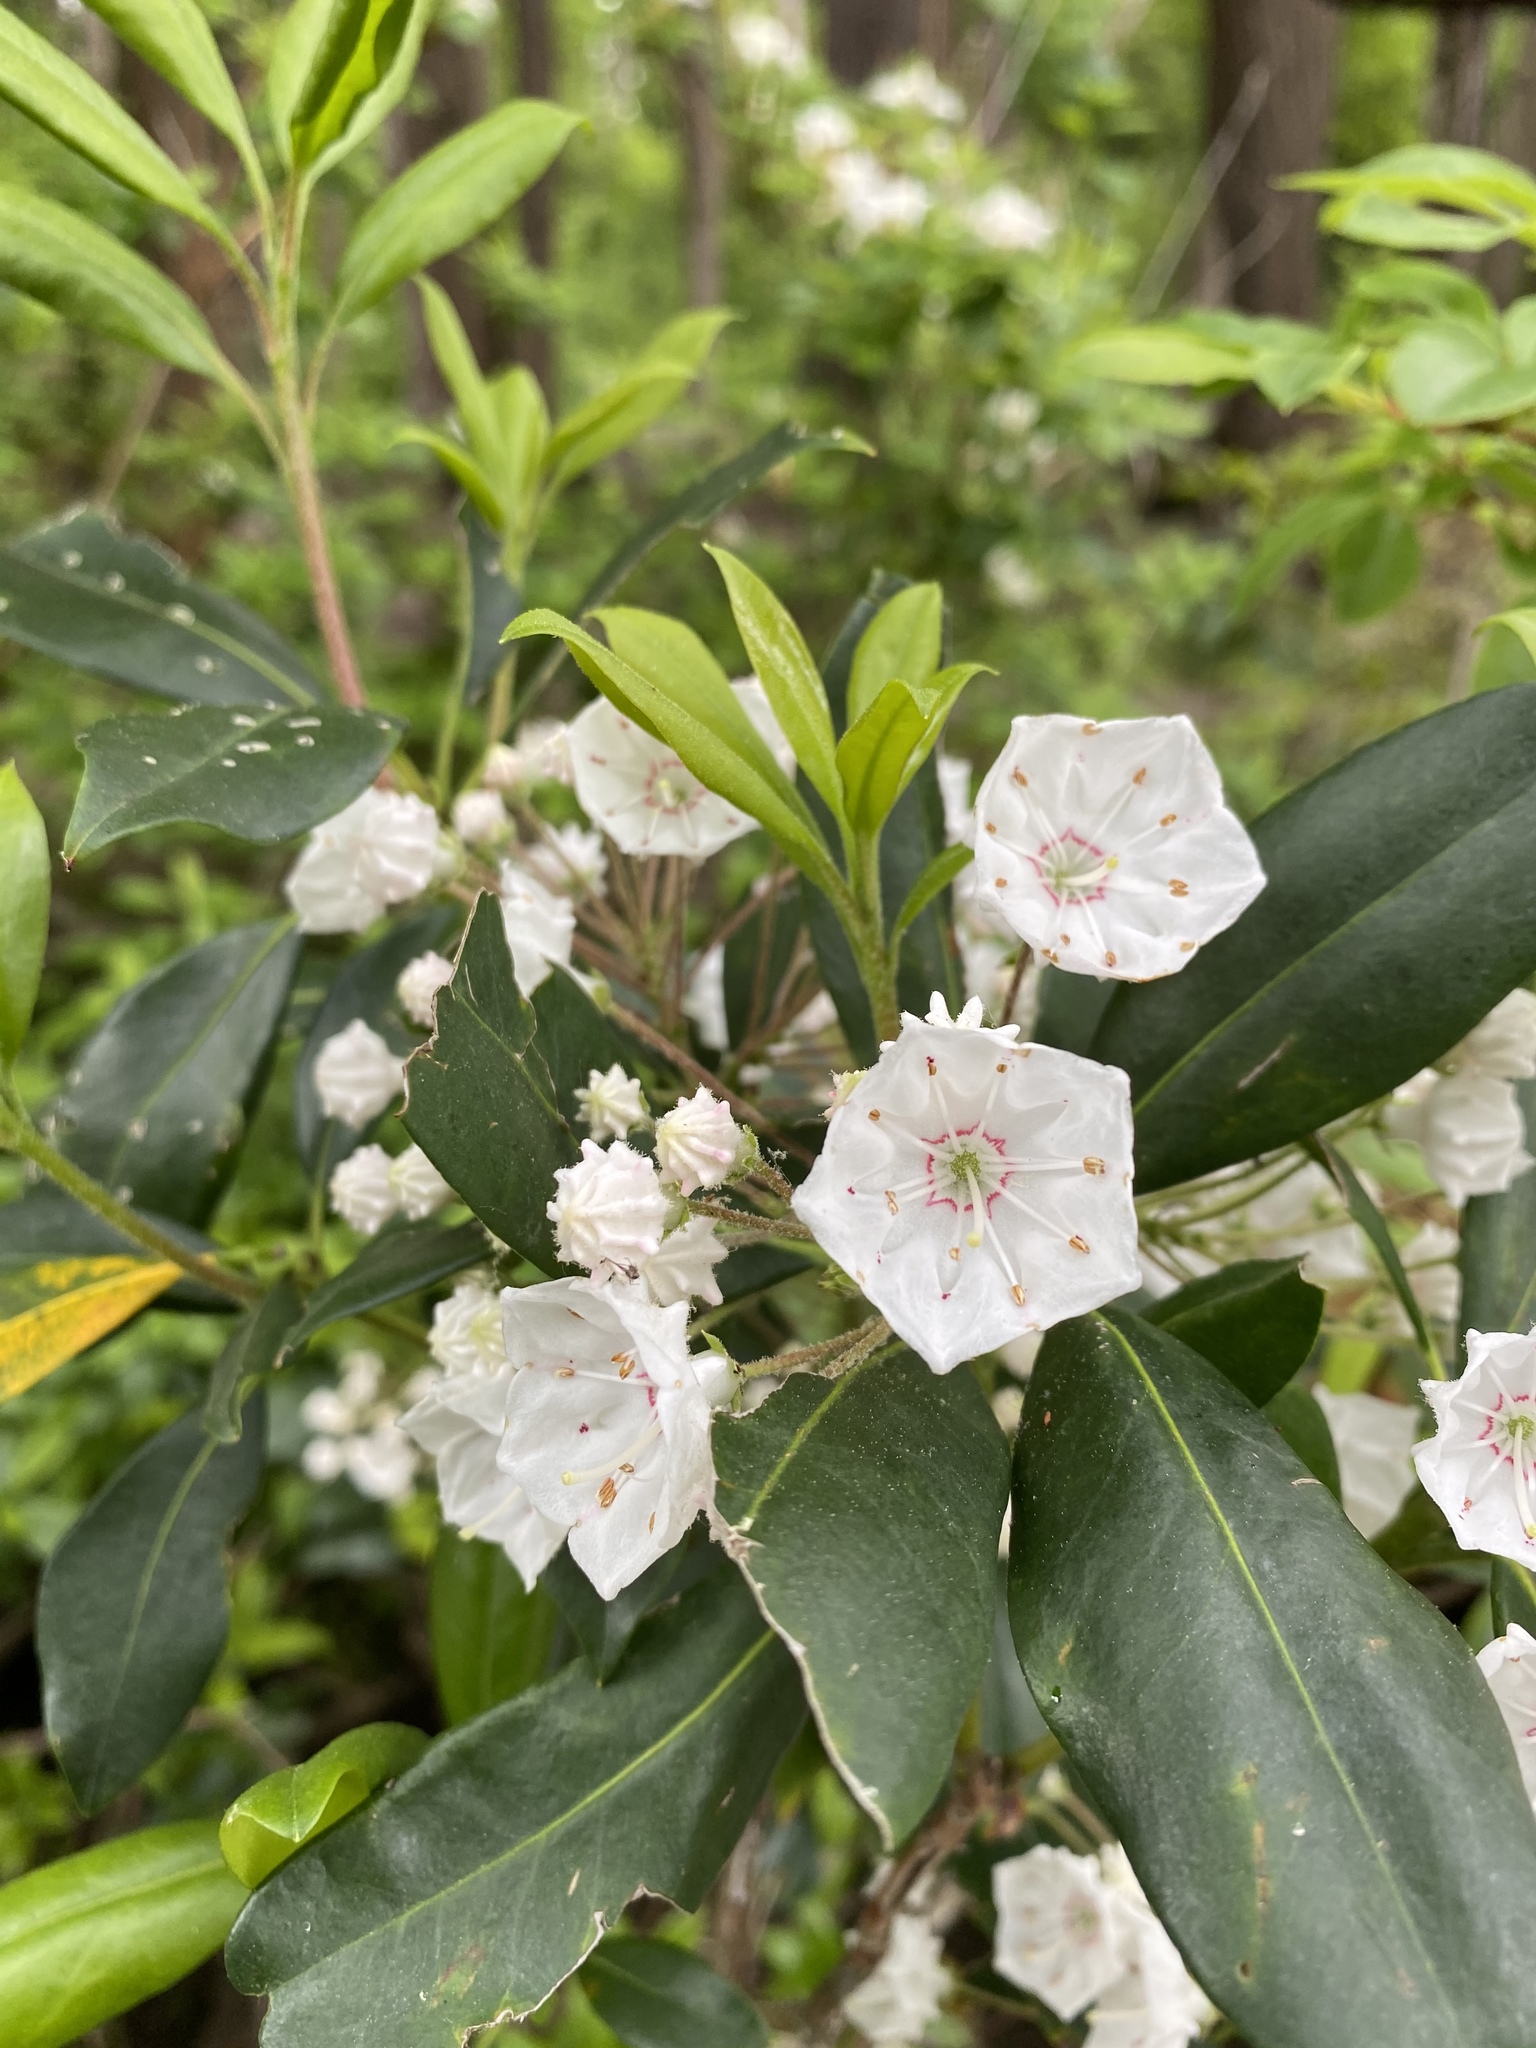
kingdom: Plantae
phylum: Tracheophyta
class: Magnoliopsida
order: Ericales
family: Ericaceae
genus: Kalmia
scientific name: Kalmia latifolia
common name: Mountain-laurel
